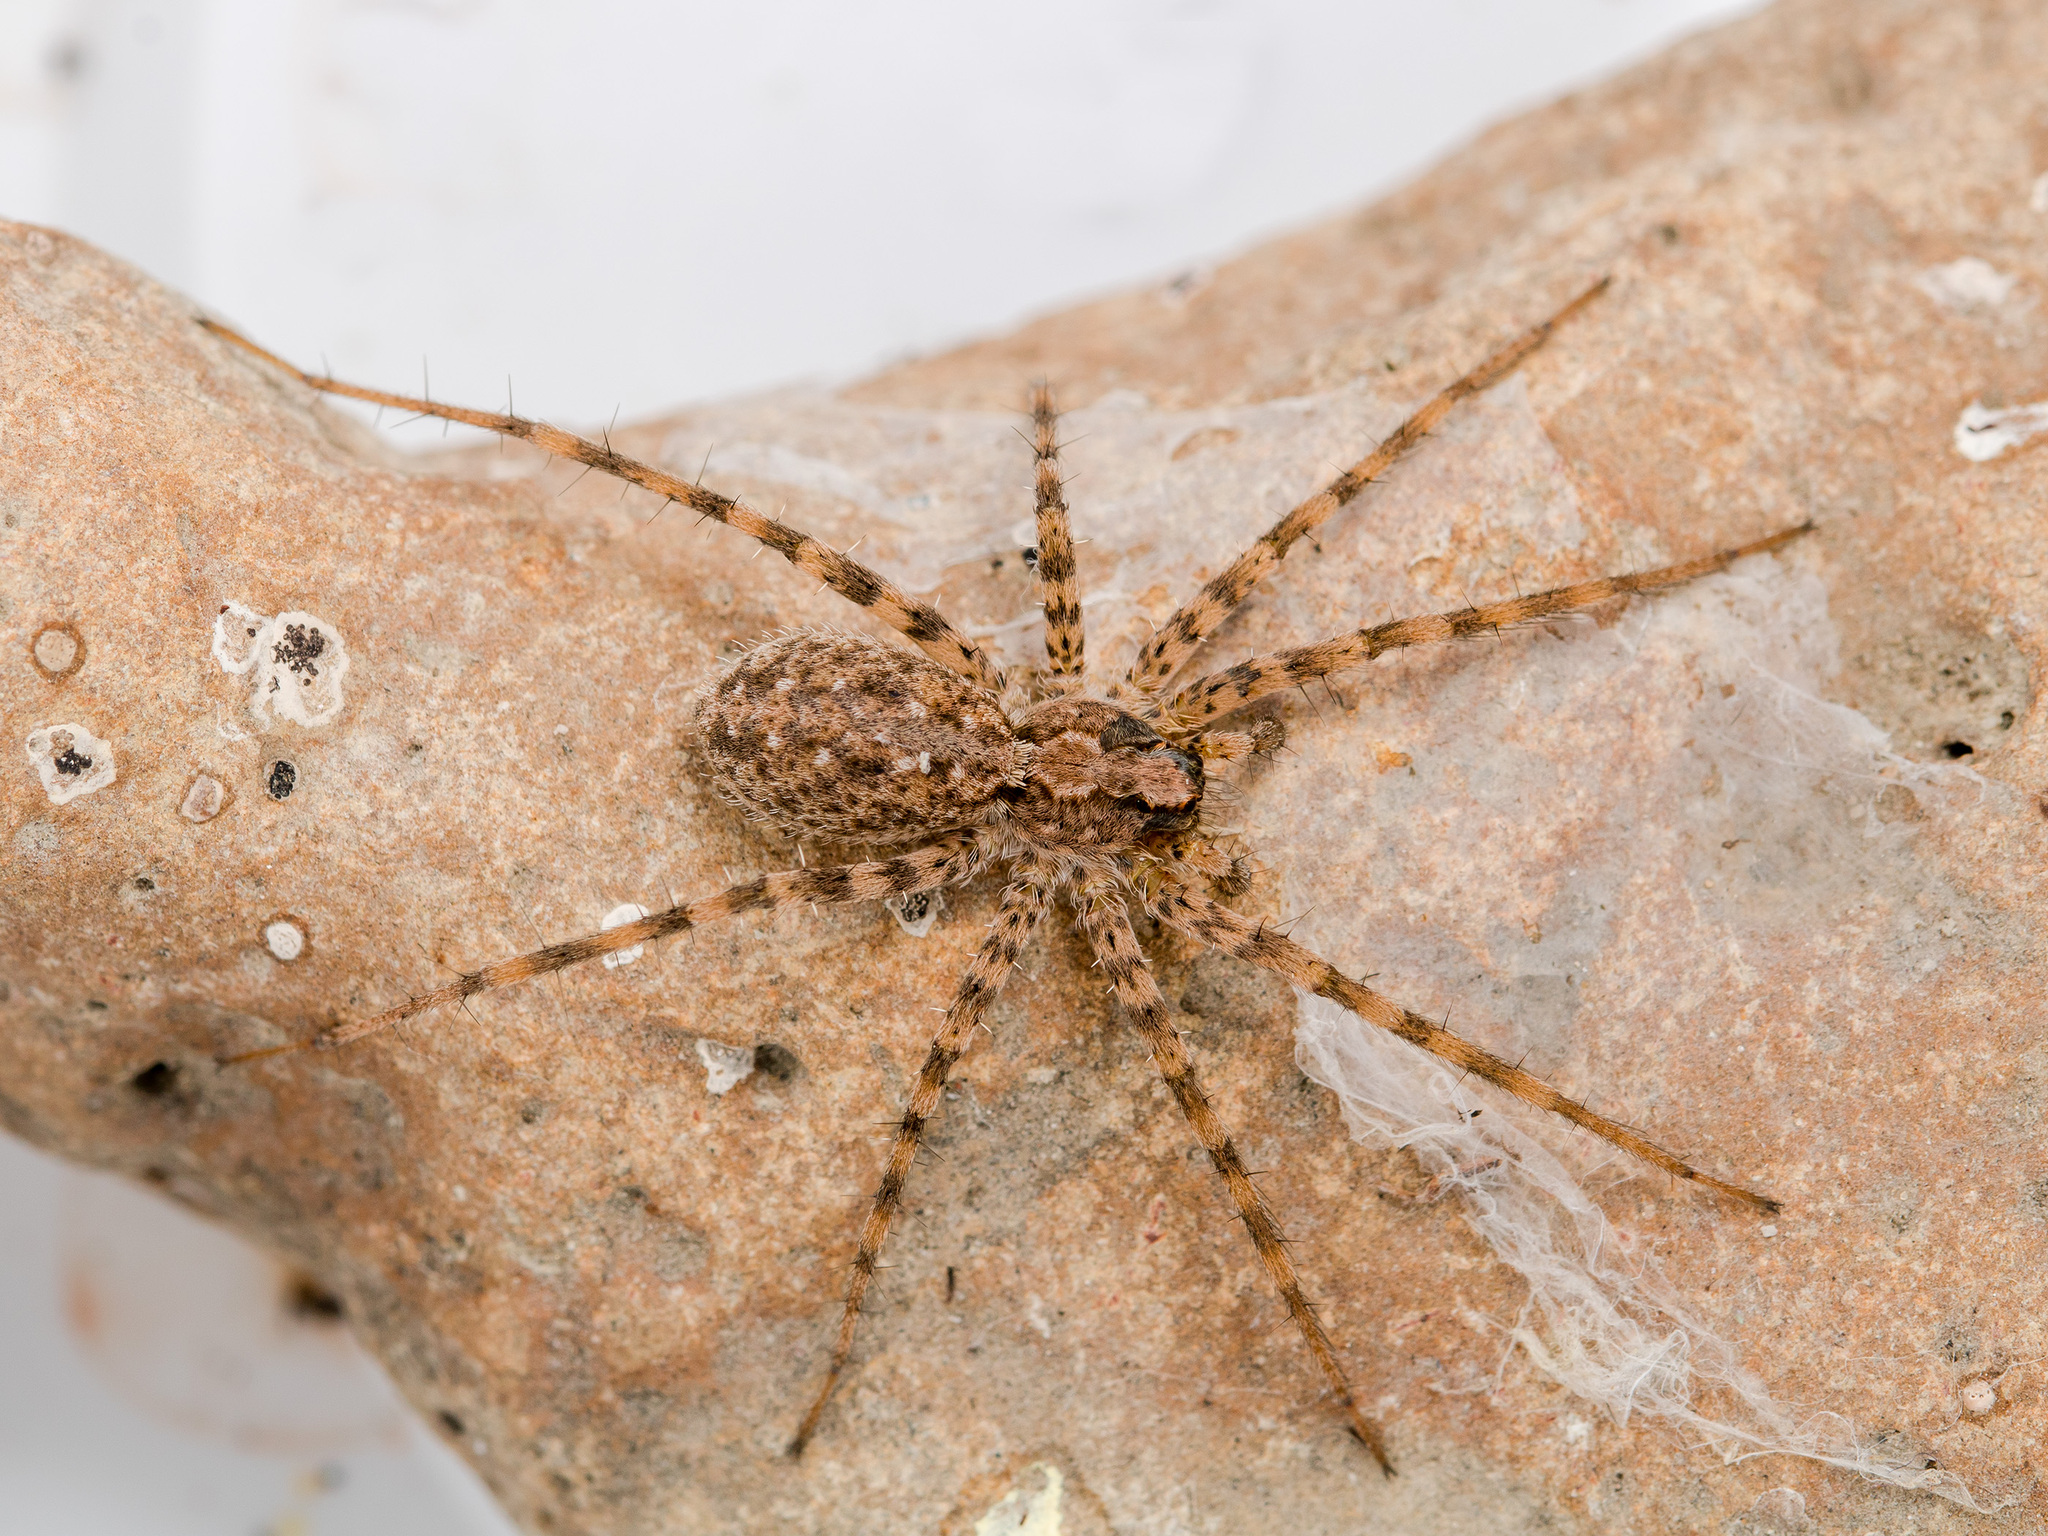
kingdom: Animalia
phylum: Arthropoda
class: Arachnida
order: Araneae
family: Lycosidae
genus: Evippa
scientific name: Evippa sjostedti
